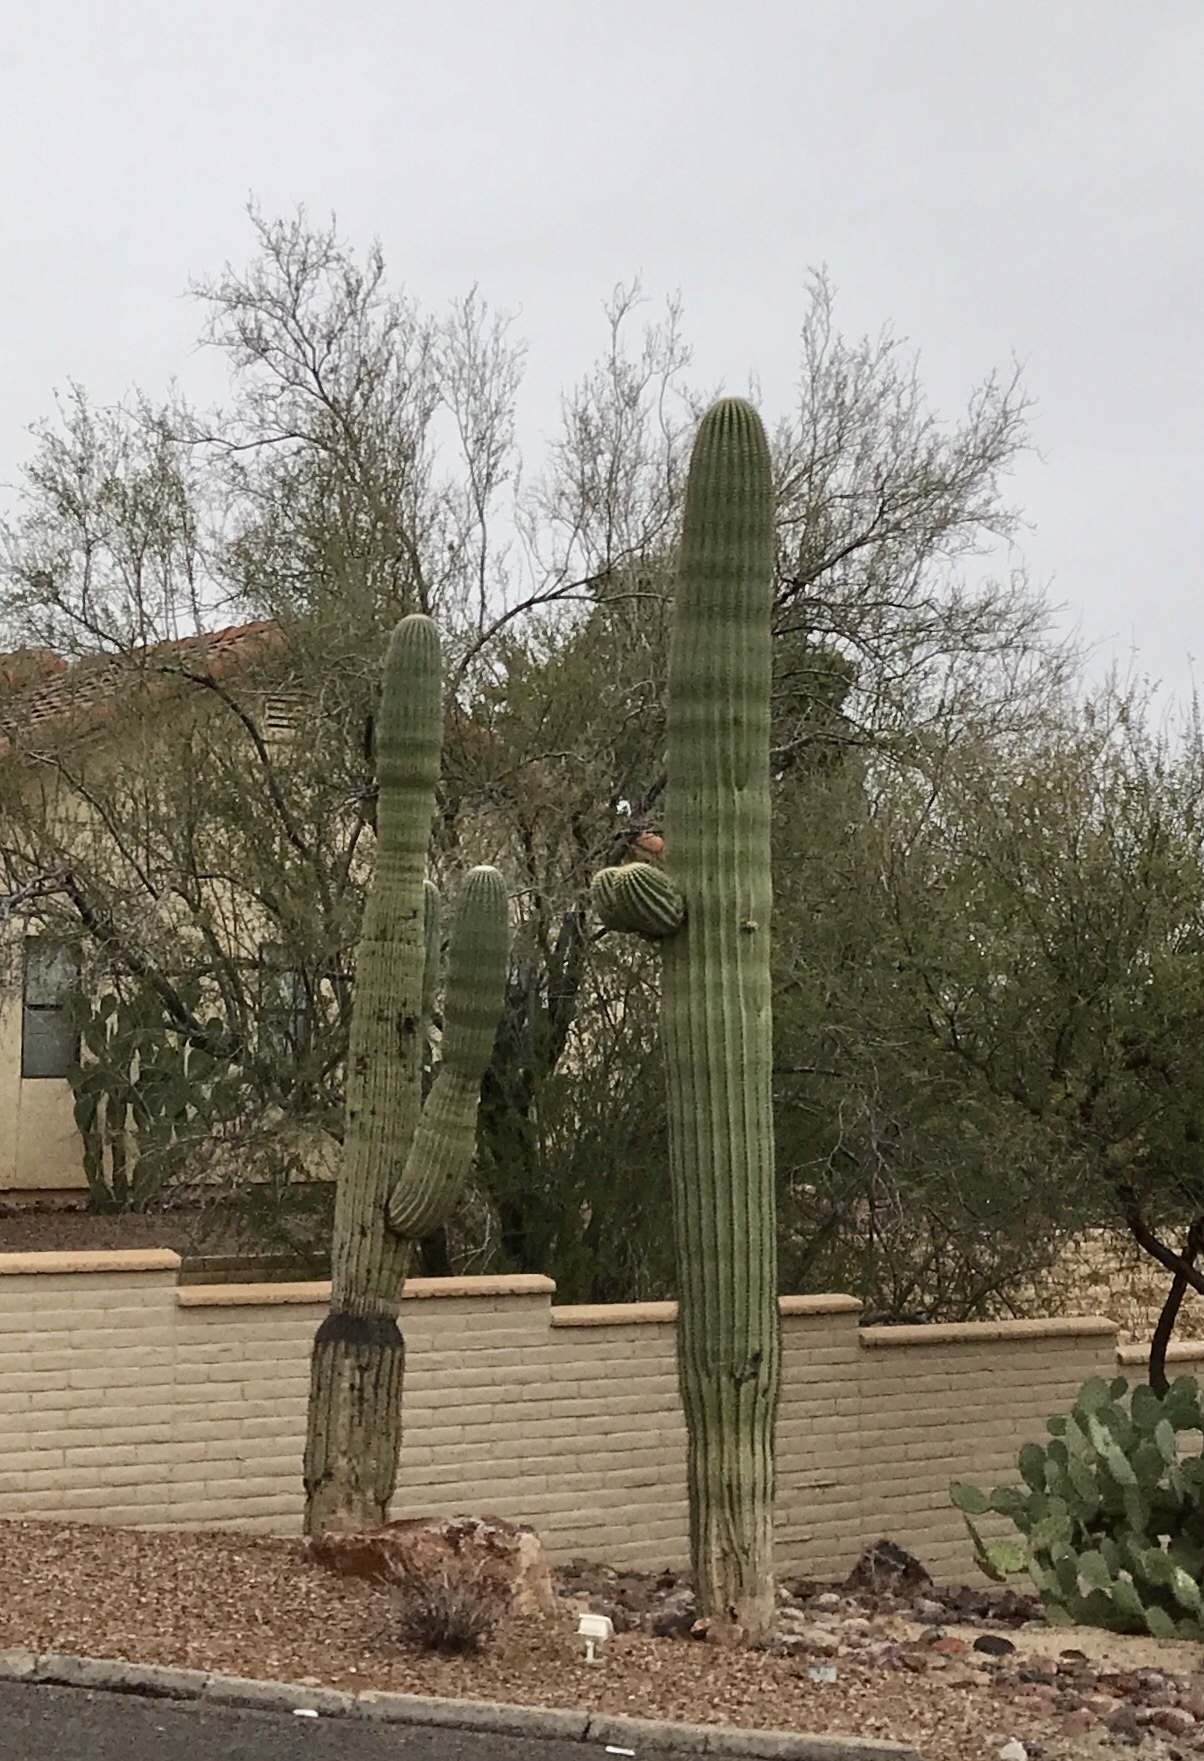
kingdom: Plantae
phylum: Tracheophyta
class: Magnoliopsida
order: Caryophyllales
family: Cactaceae
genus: Carnegiea
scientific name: Carnegiea gigantea
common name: Saguaro
